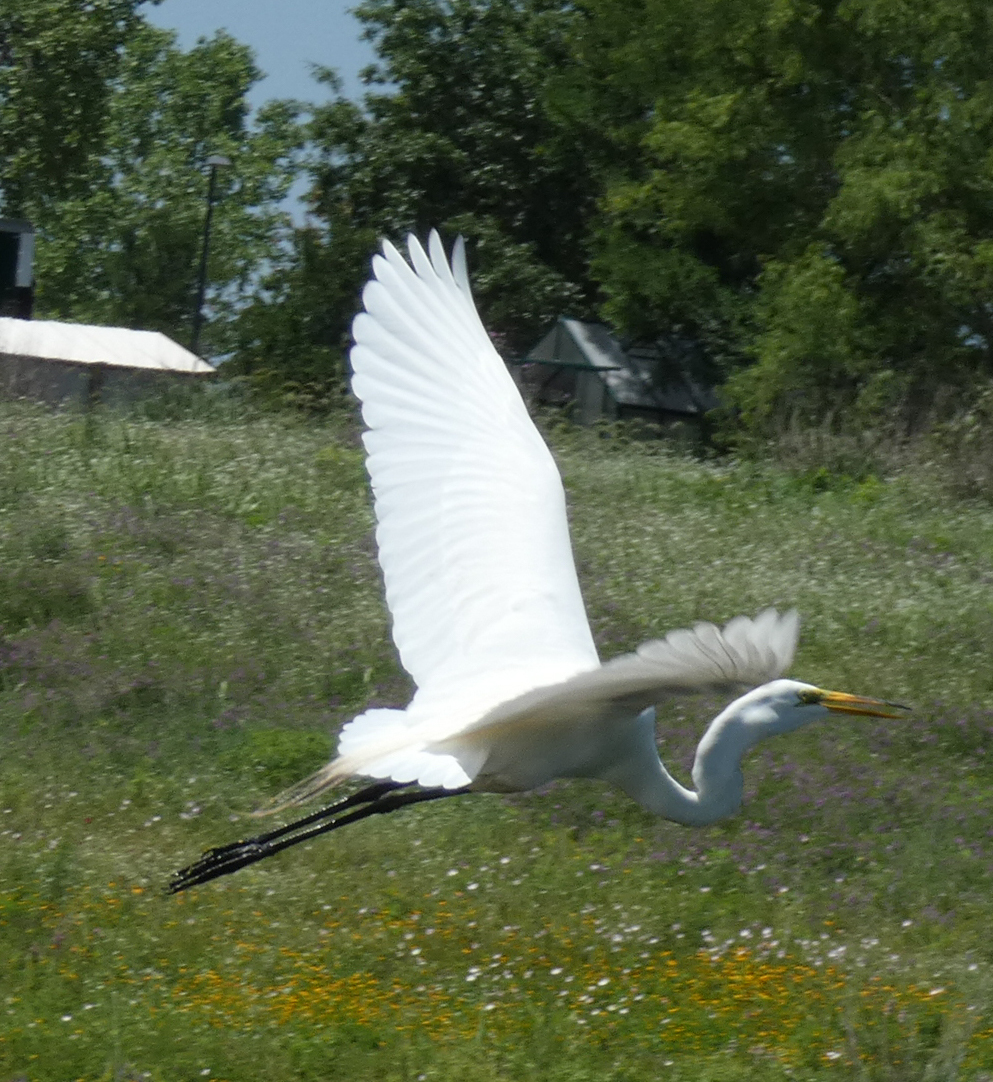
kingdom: Animalia
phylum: Chordata
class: Aves
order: Pelecaniformes
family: Ardeidae
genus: Ardea
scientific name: Ardea alba
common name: Great egret
